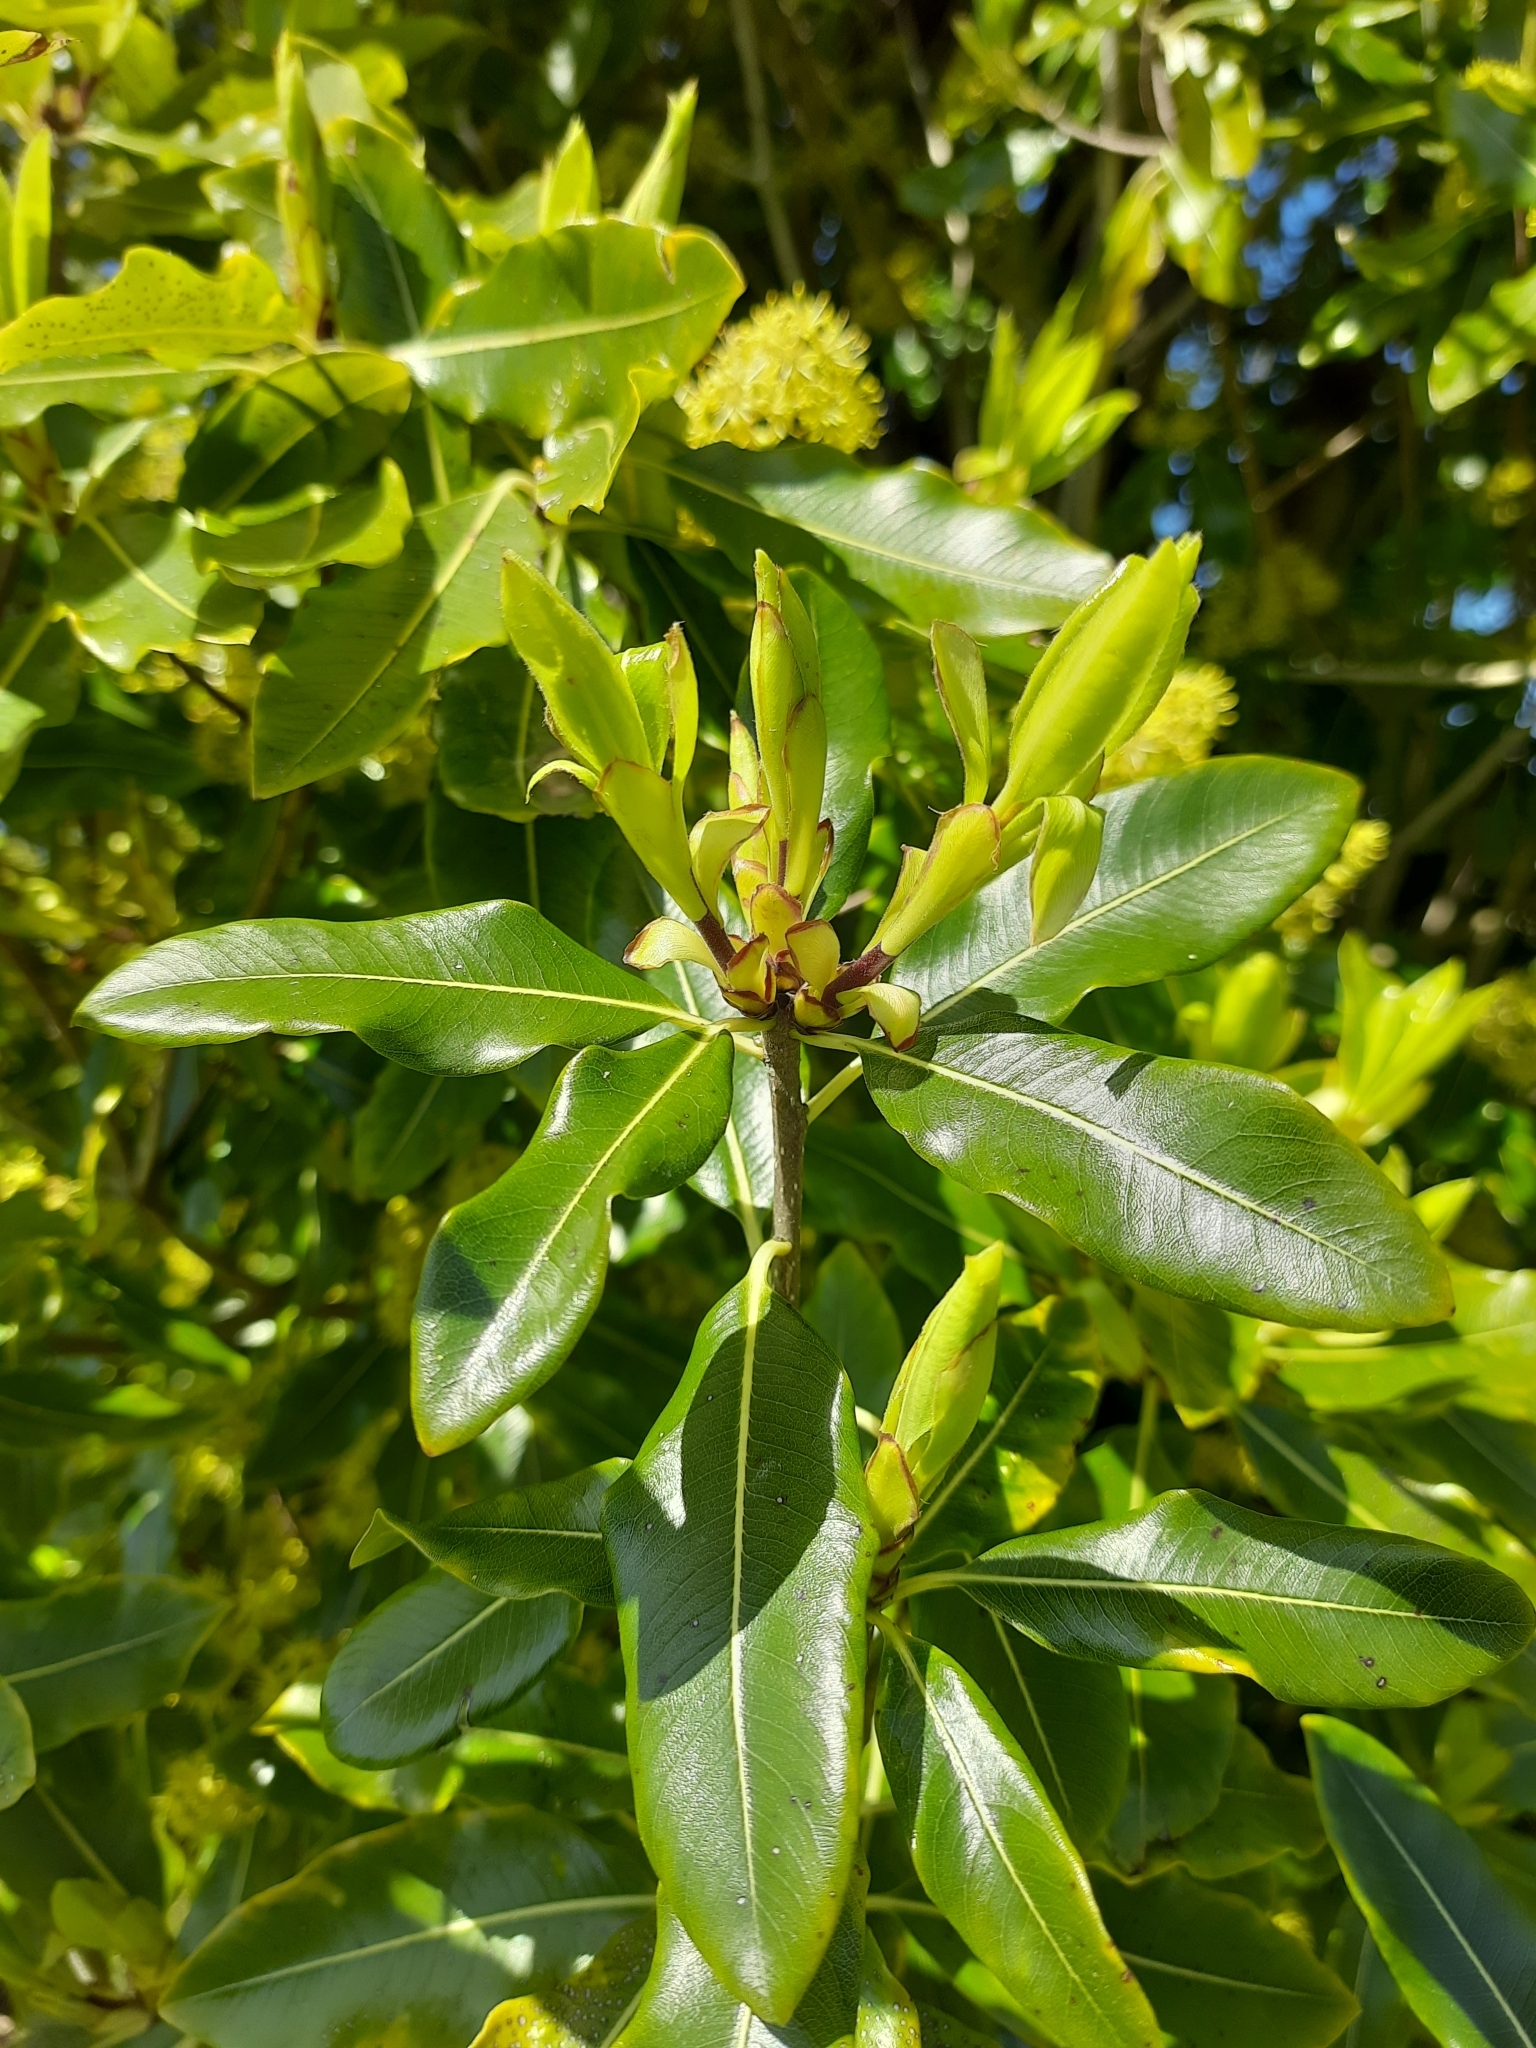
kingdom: Plantae
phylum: Tracheophyta
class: Magnoliopsida
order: Apiales
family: Pittosporaceae
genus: Pittosporum
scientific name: Pittosporum eugenioides
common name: Lemonwood
